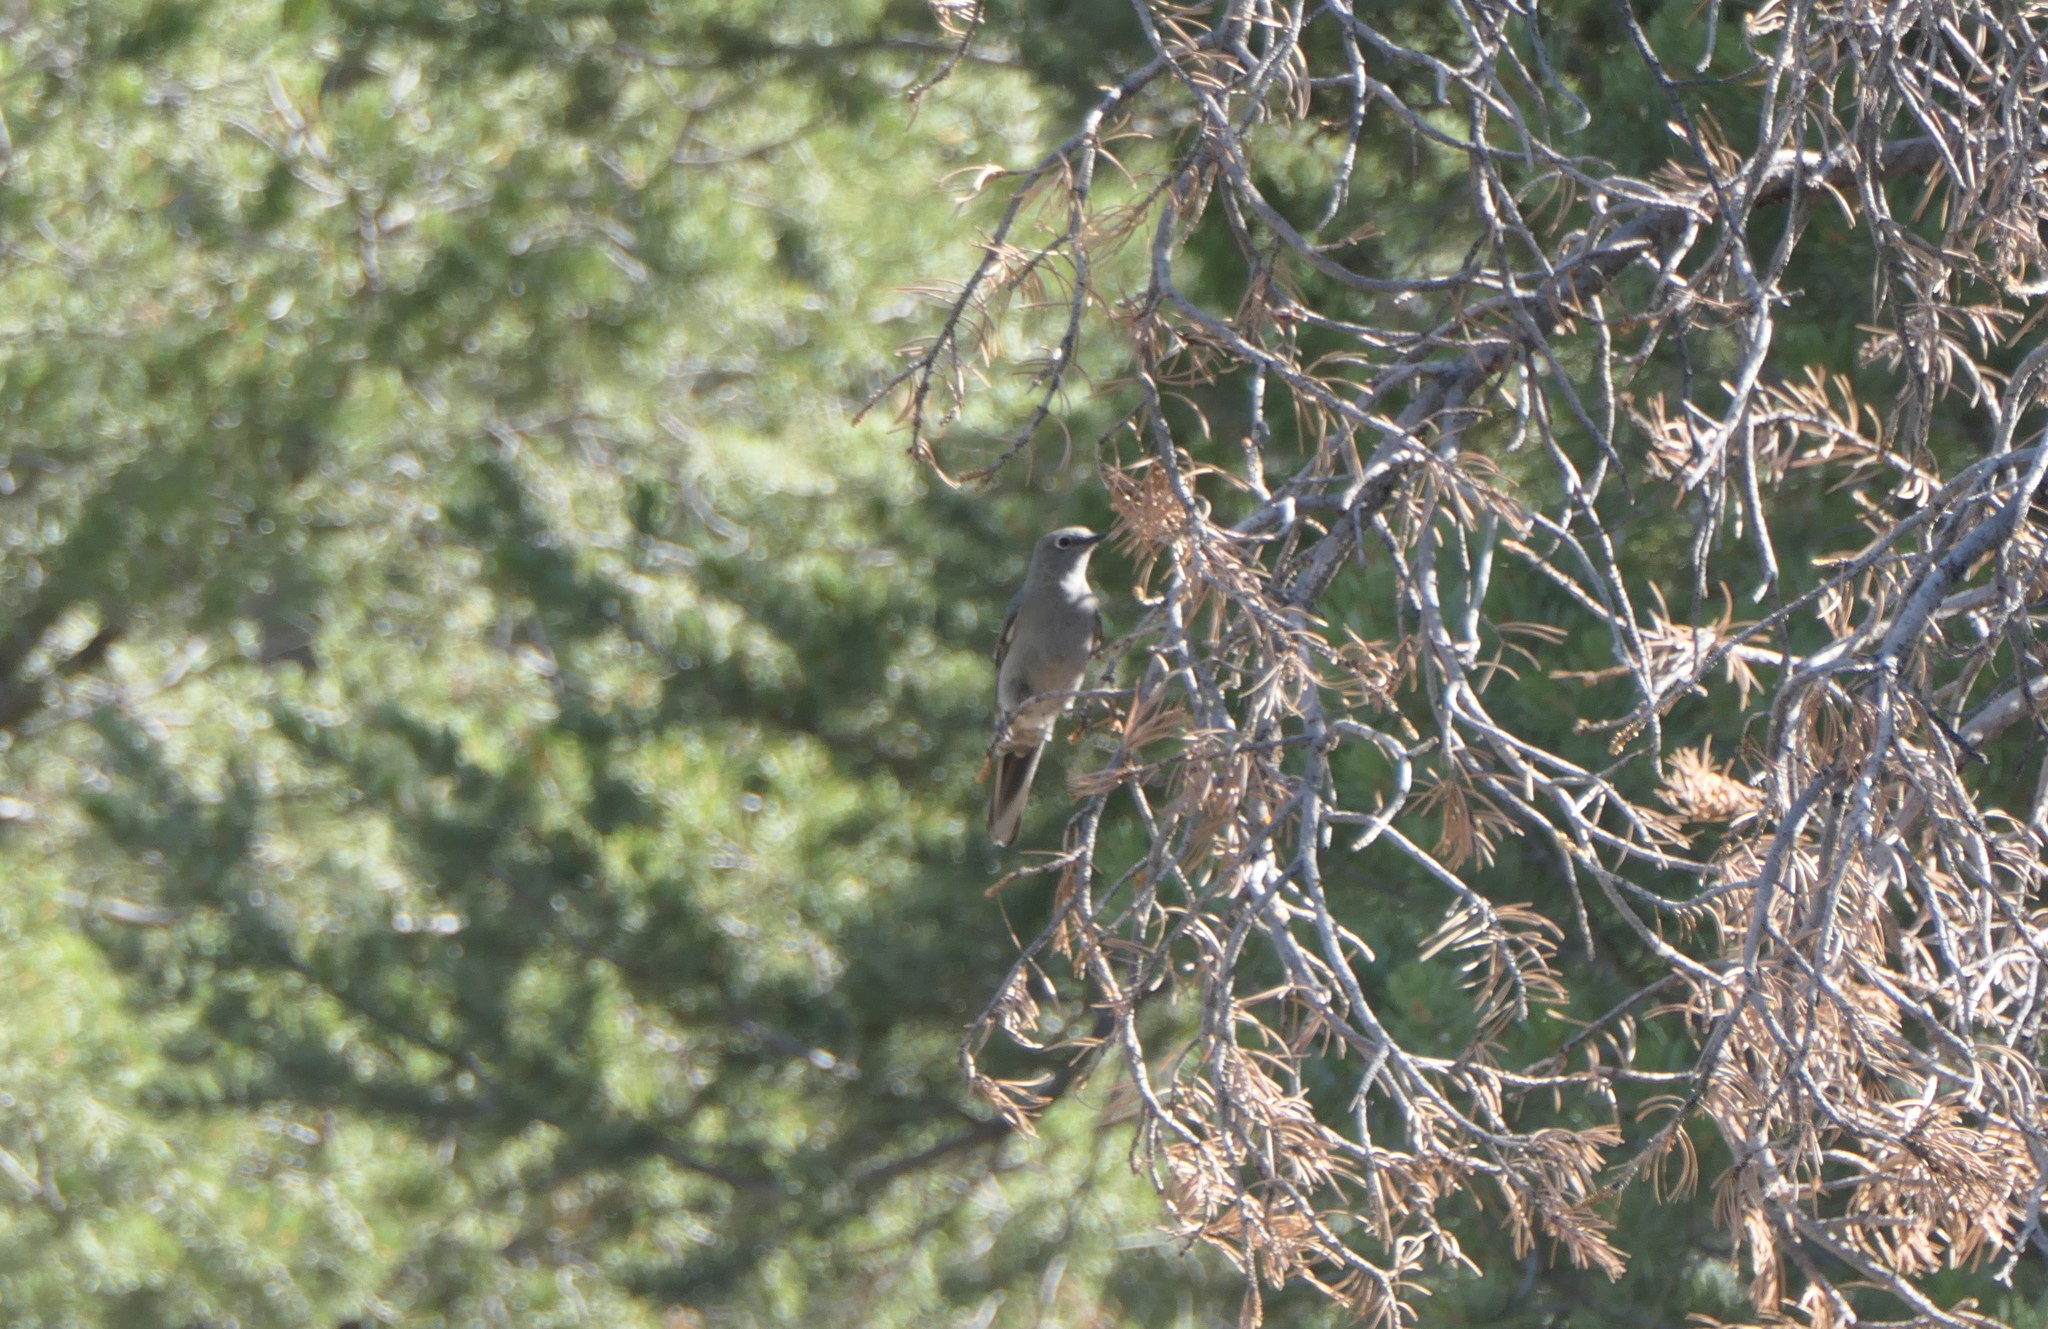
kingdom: Animalia
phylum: Chordata
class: Aves
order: Passeriformes
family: Turdidae
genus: Myadestes
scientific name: Myadestes townsendi
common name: Townsend's solitaire
